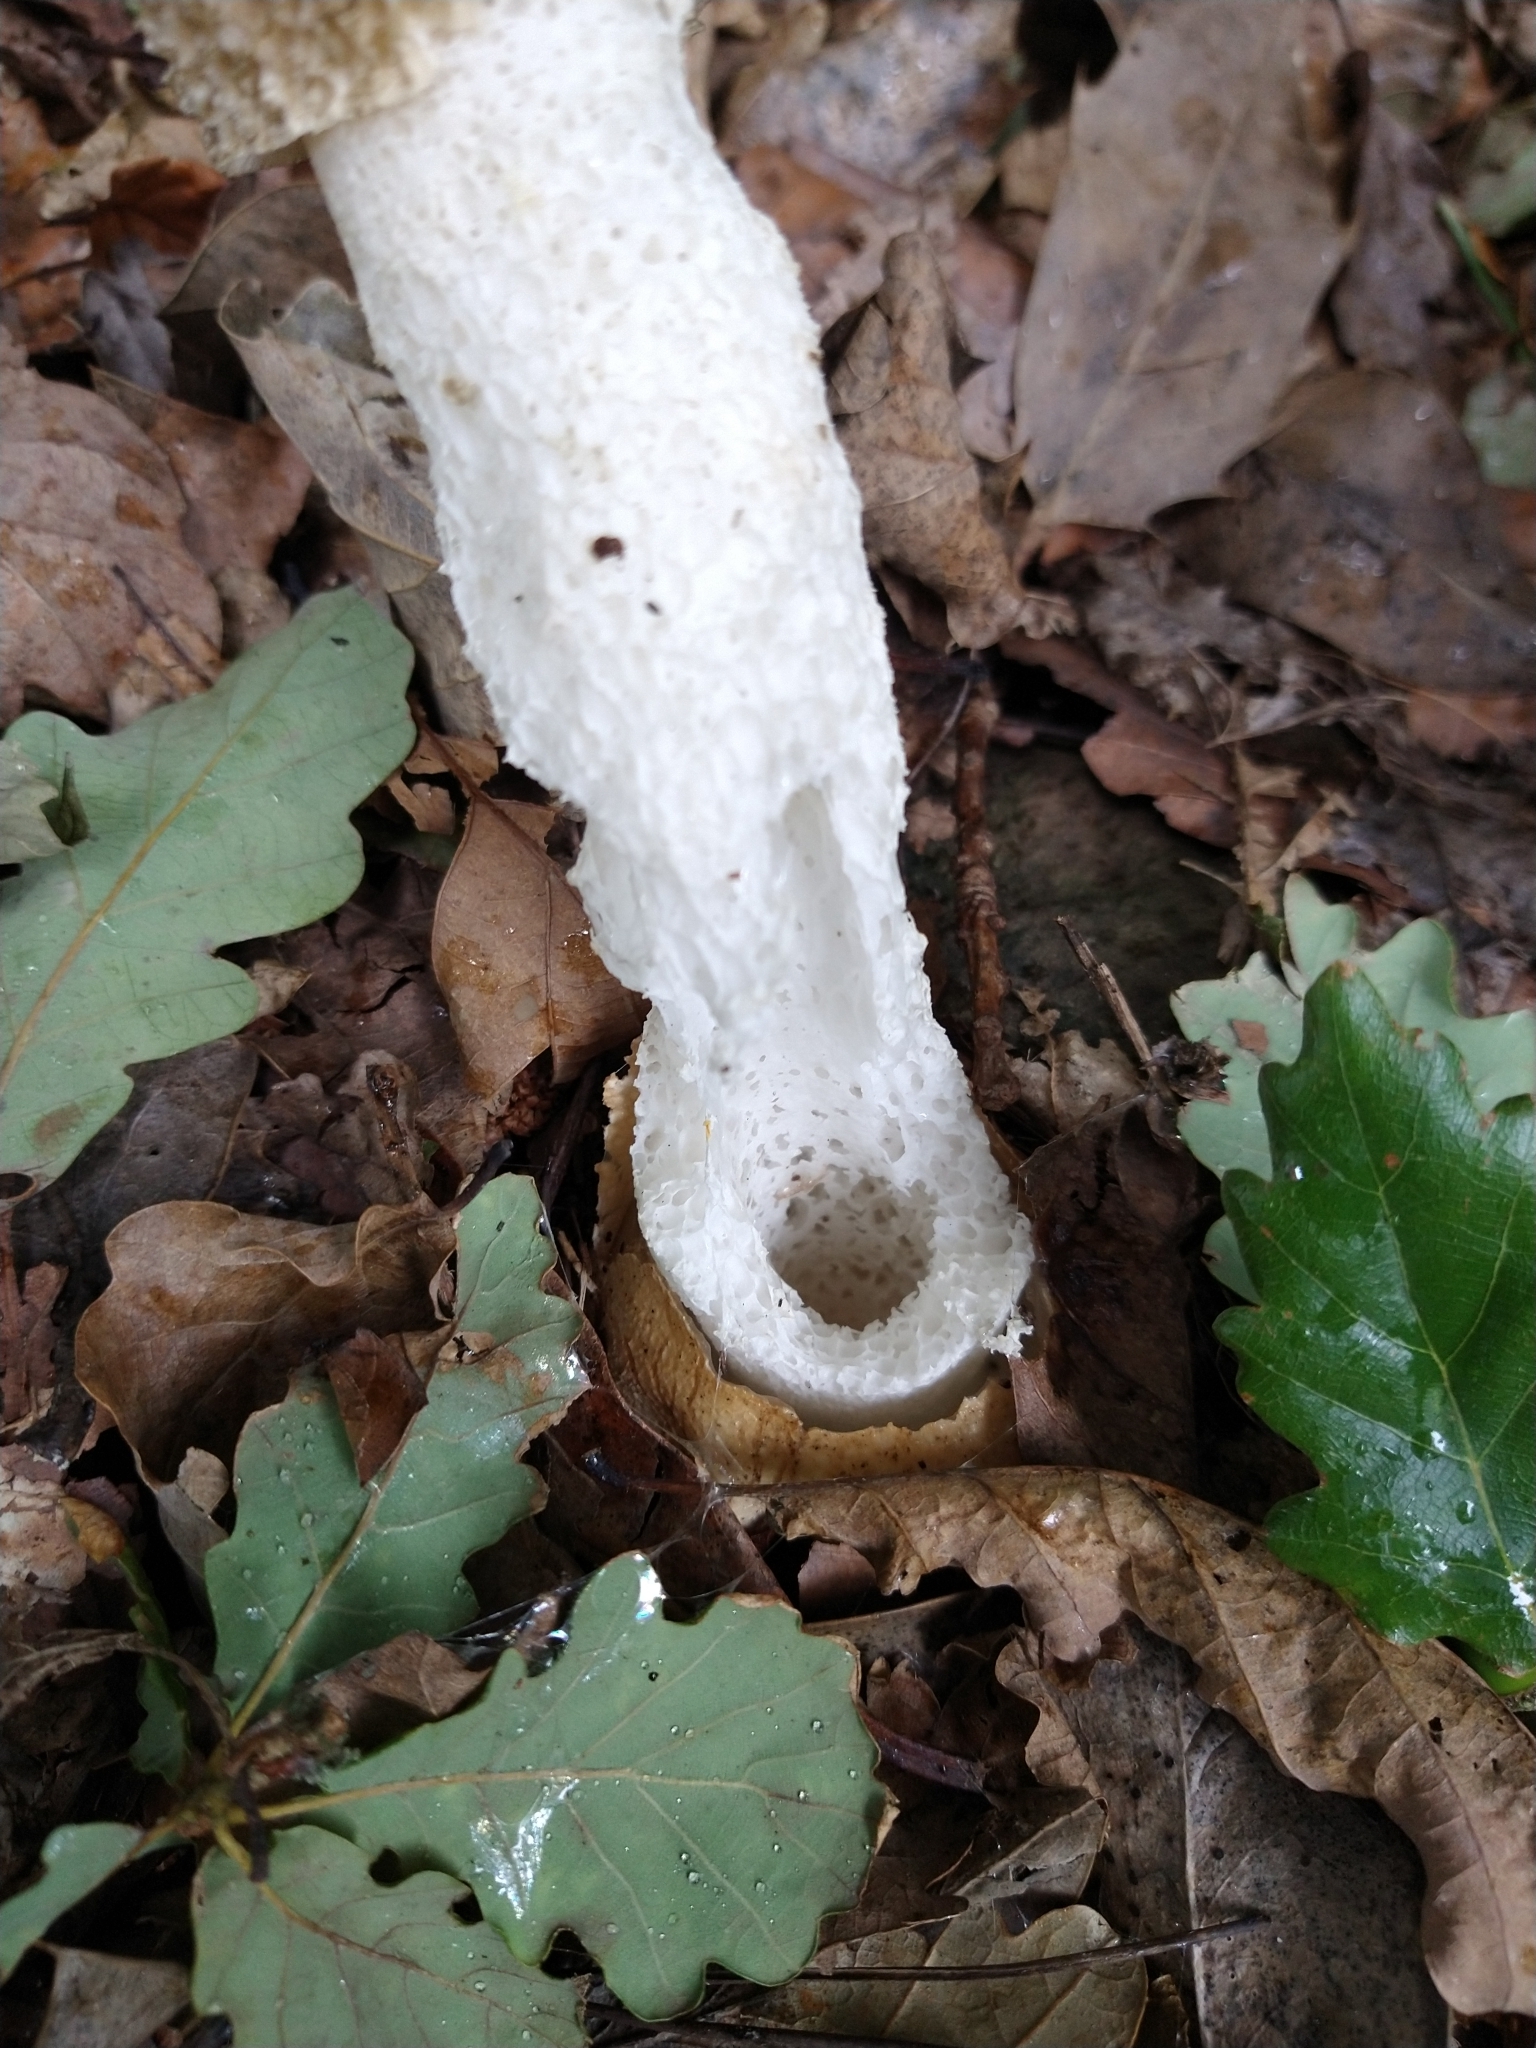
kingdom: Fungi
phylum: Basidiomycota
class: Agaricomycetes
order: Phallales
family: Phallaceae
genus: Phallus
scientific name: Phallus impudicus
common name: Common stinkhorn
